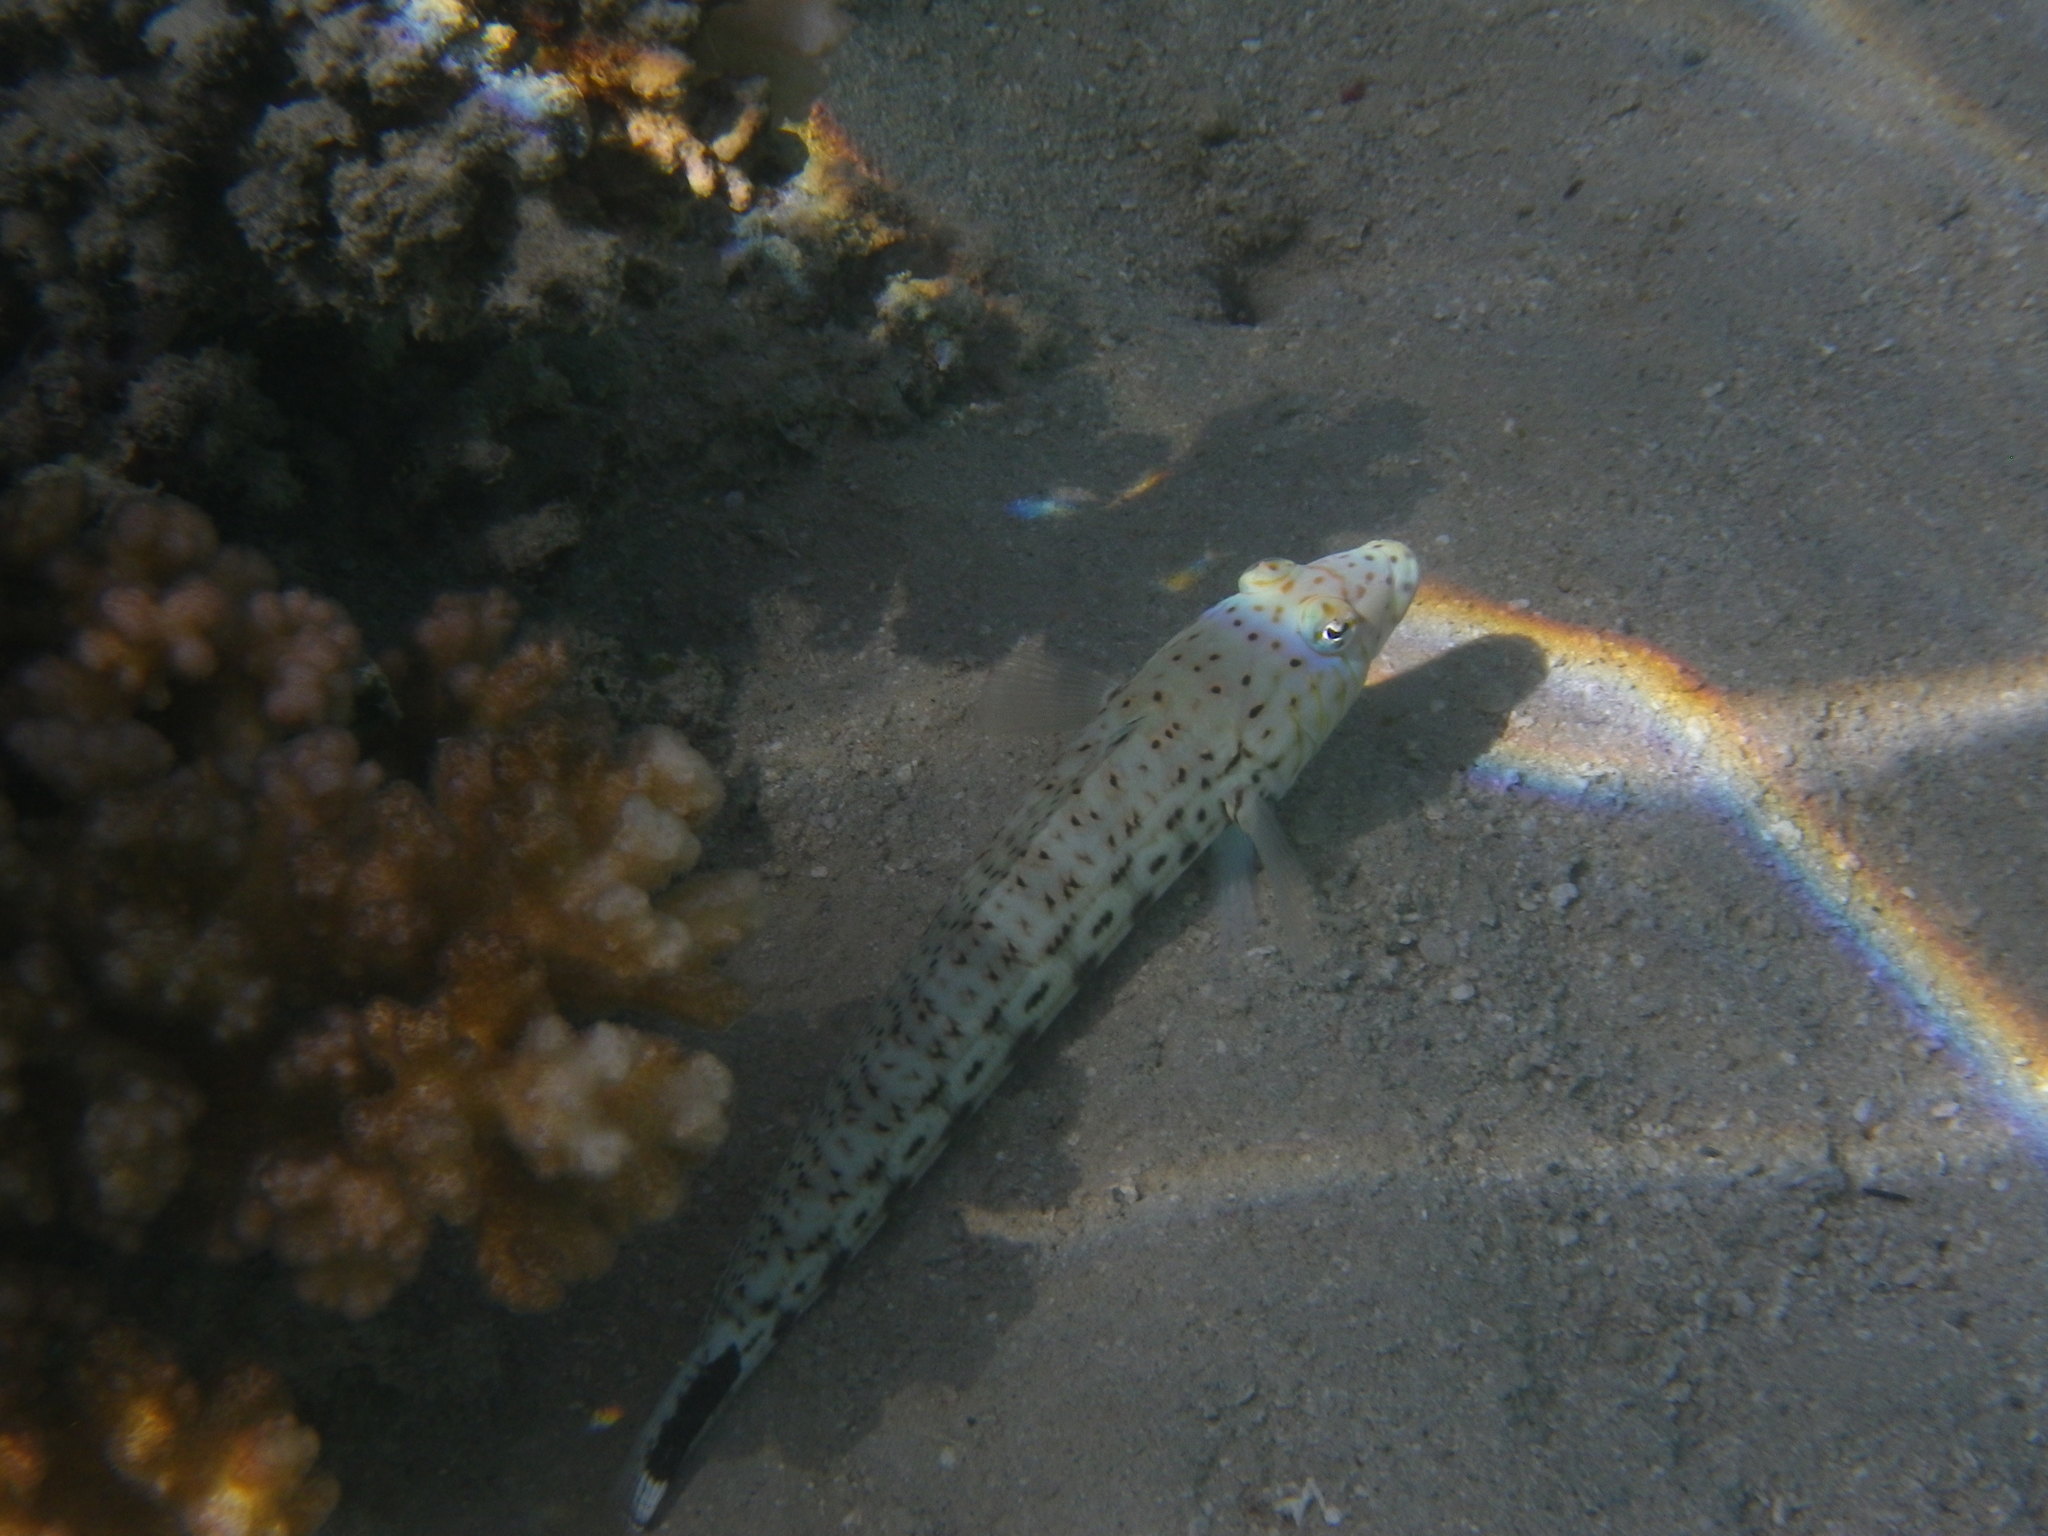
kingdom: Animalia
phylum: Chordata
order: Perciformes
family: Pinguipedidae
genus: Parapercis
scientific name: Parapercis xanthogramma
